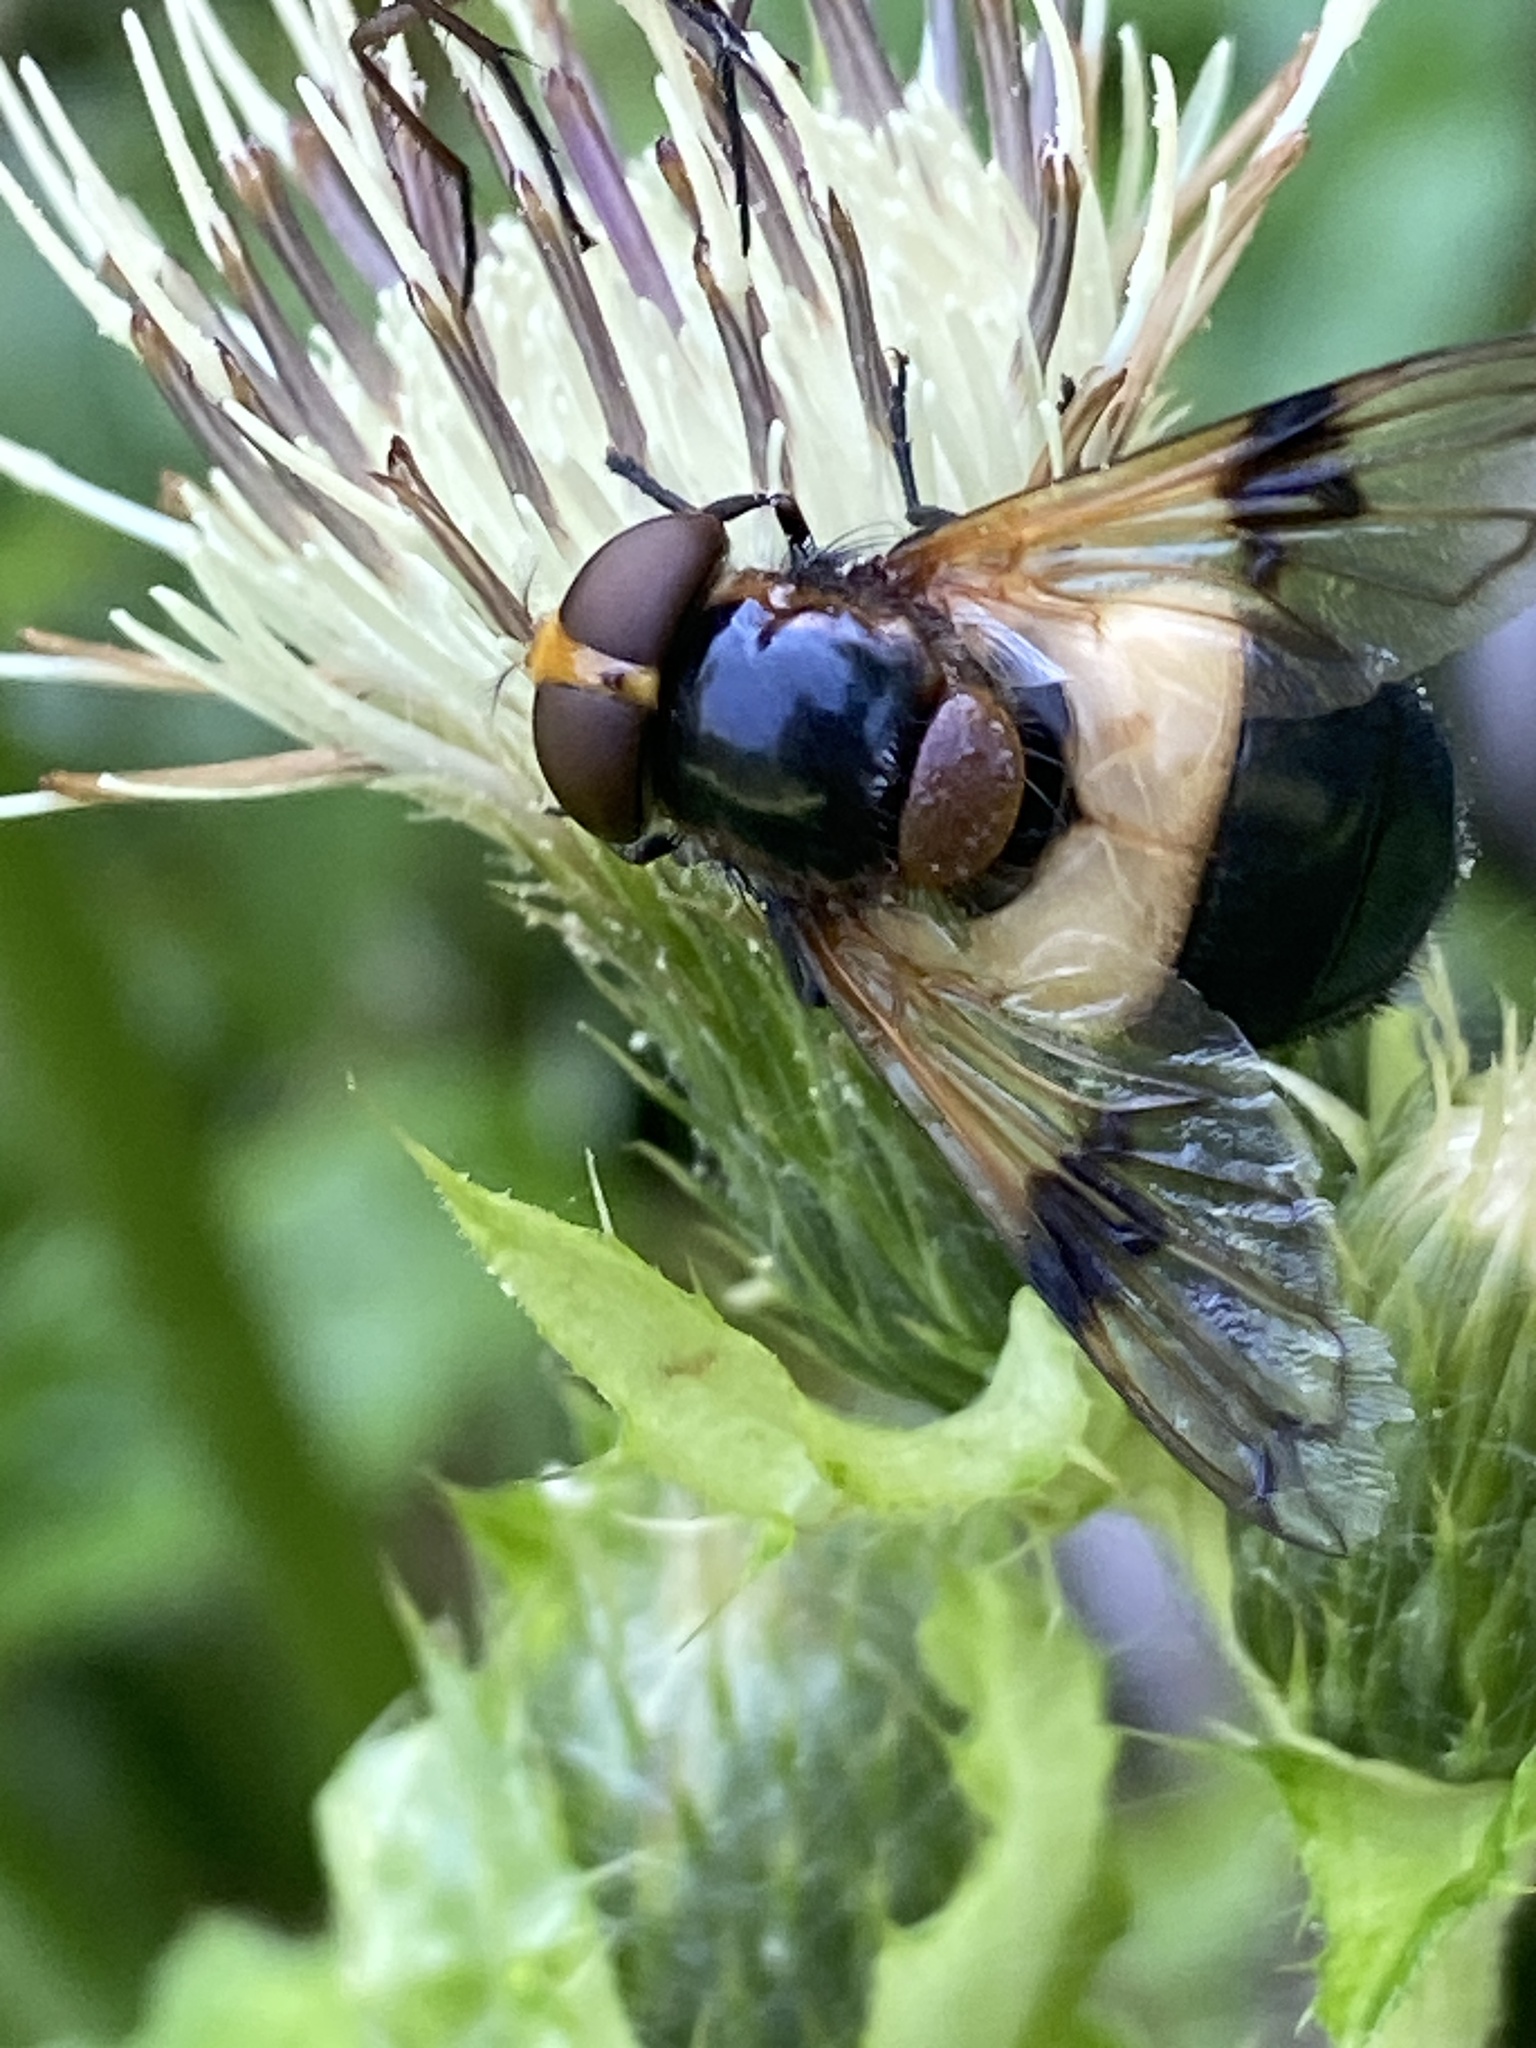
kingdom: Animalia
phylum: Arthropoda
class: Insecta
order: Diptera
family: Syrphidae
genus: Volucella
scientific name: Volucella pellucens
